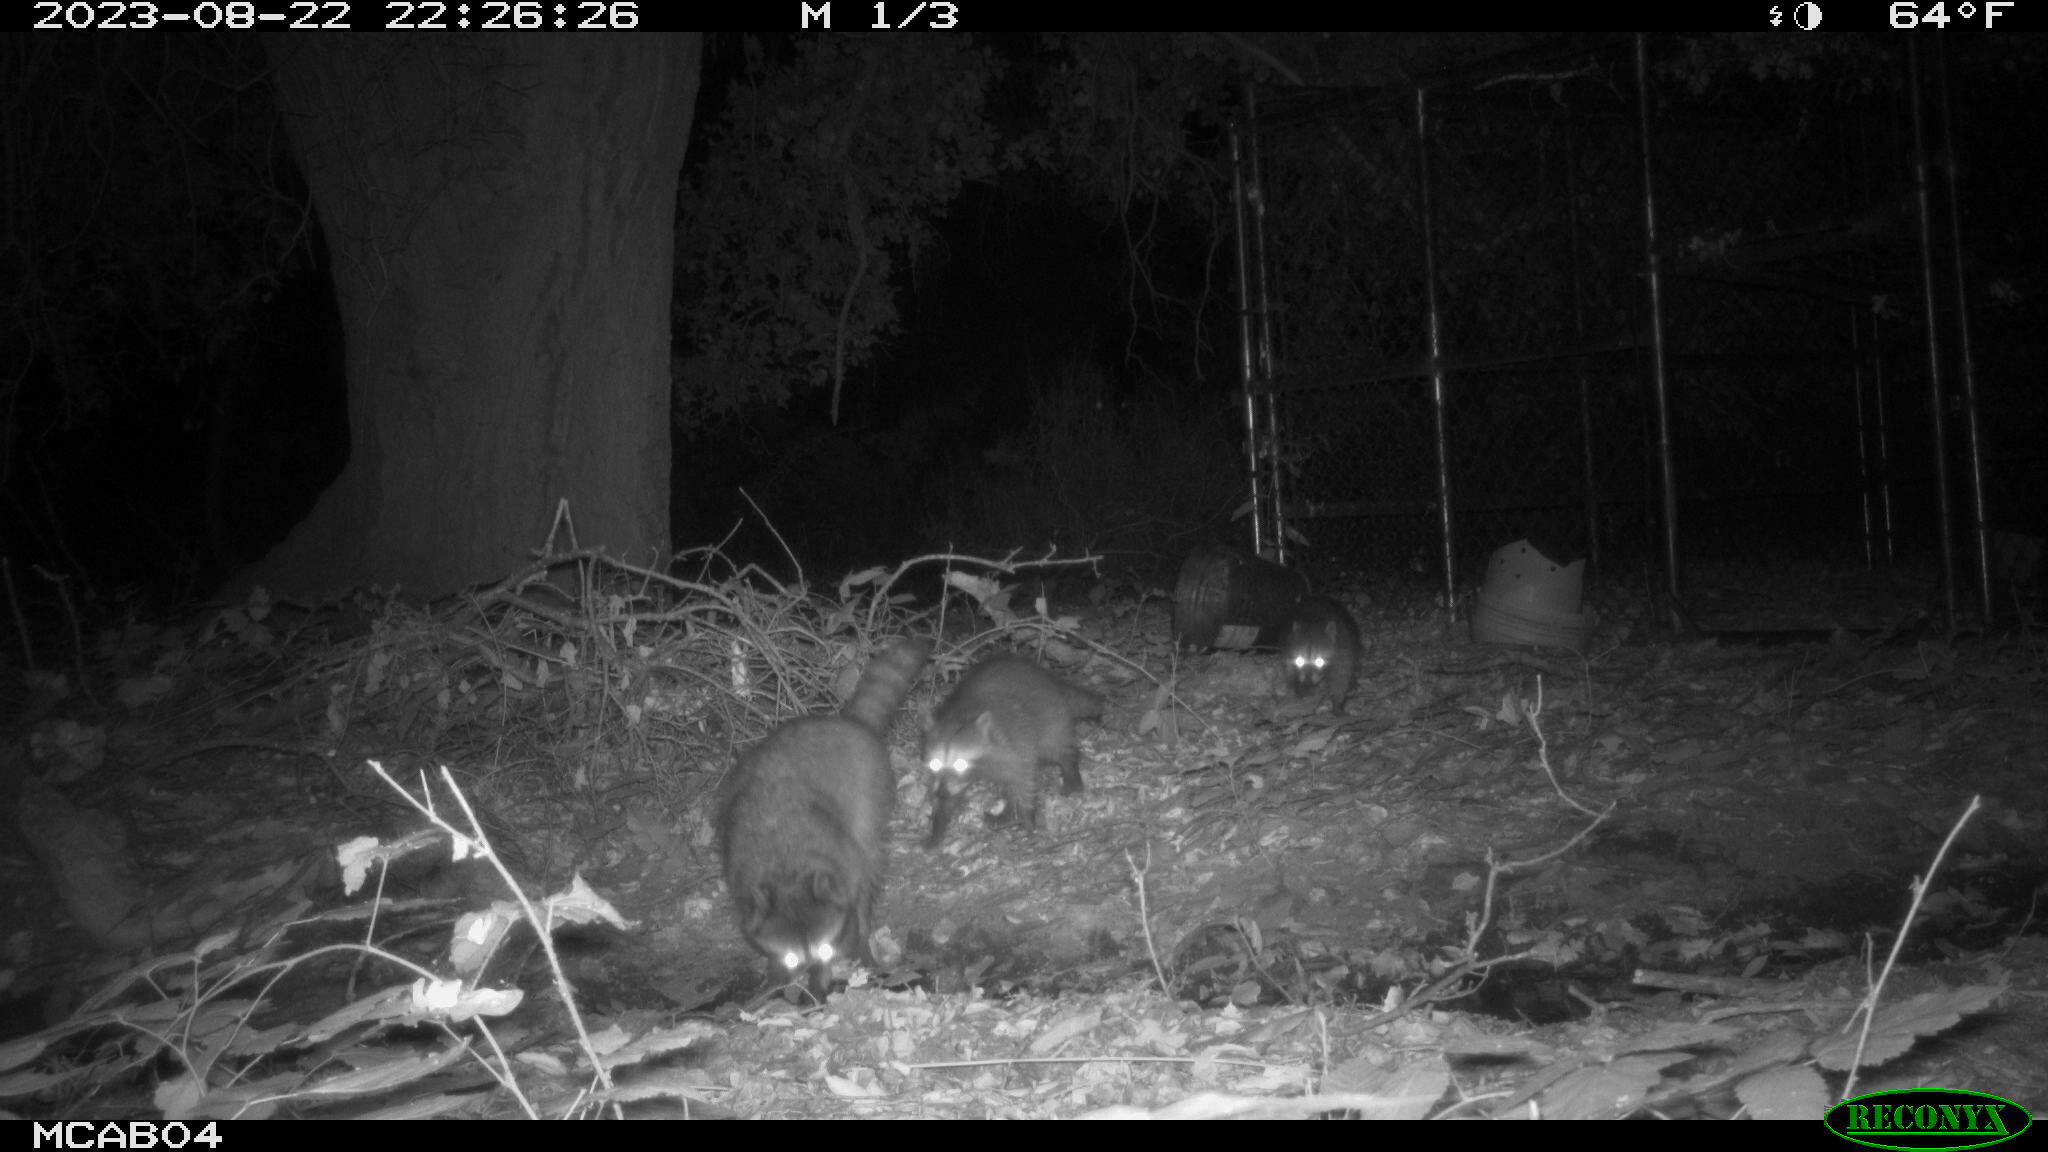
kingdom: Animalia
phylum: Chordata
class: Mammalia
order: Carnivora
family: Procyonidae
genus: Procyon
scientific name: Procyon lotor
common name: Raccoon
